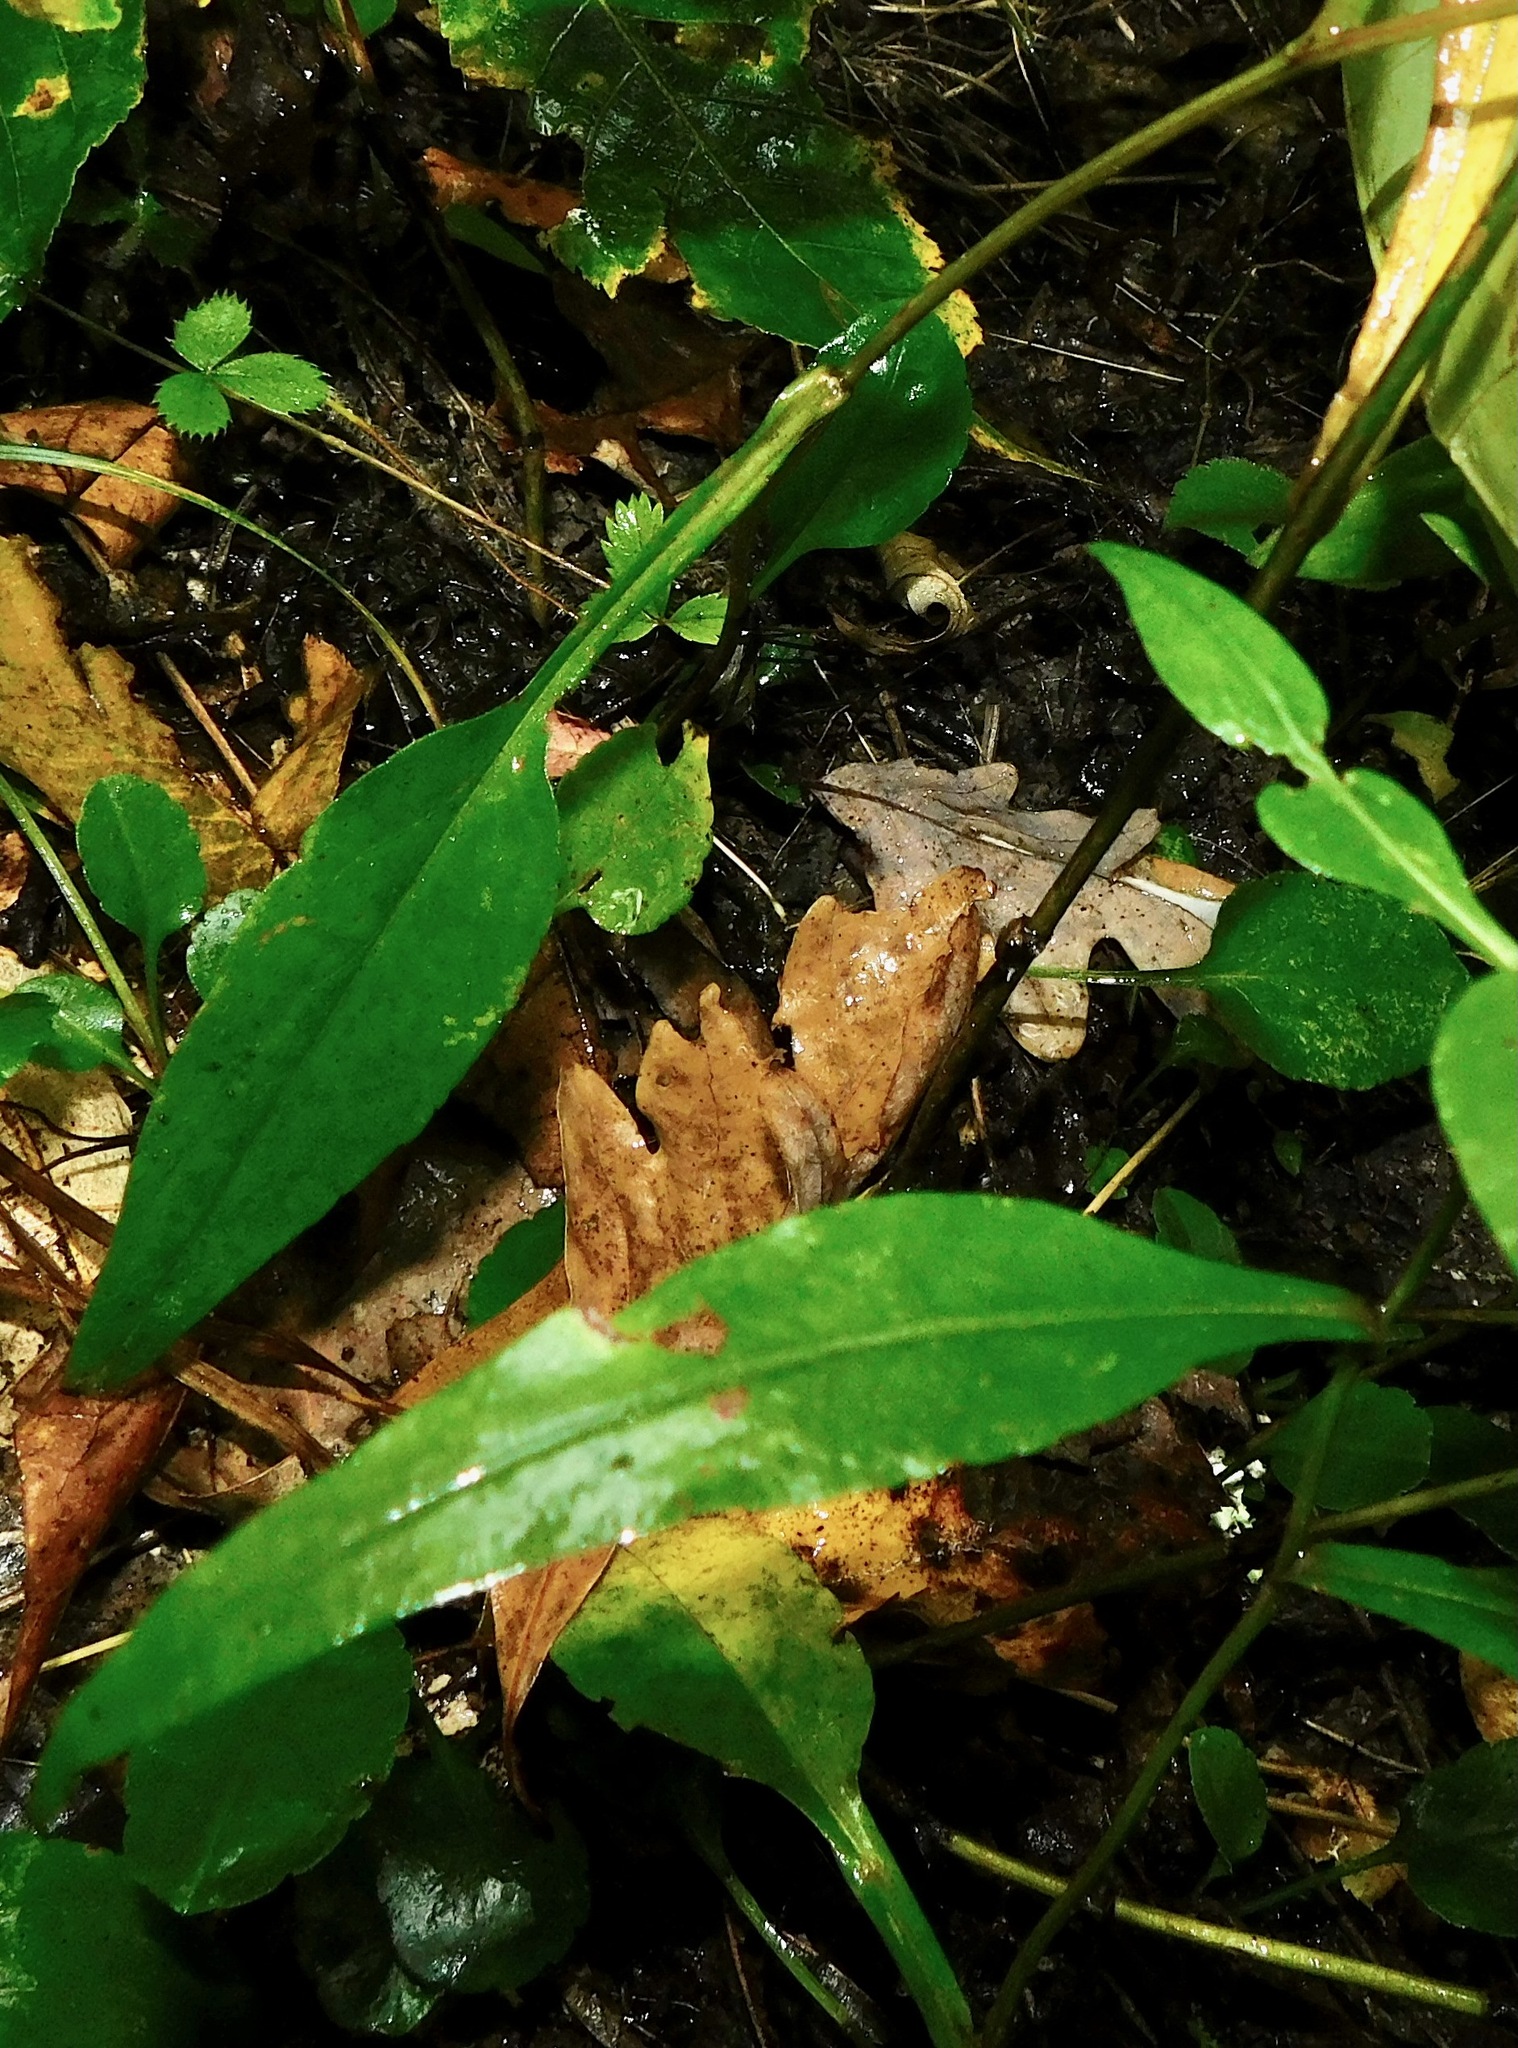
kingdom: Plantae
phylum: Tracheophyta
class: Magnoliopsida
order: Asterales
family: Asteraceae
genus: Symphyotrichum
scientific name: Symphyotrichum retroflexum
